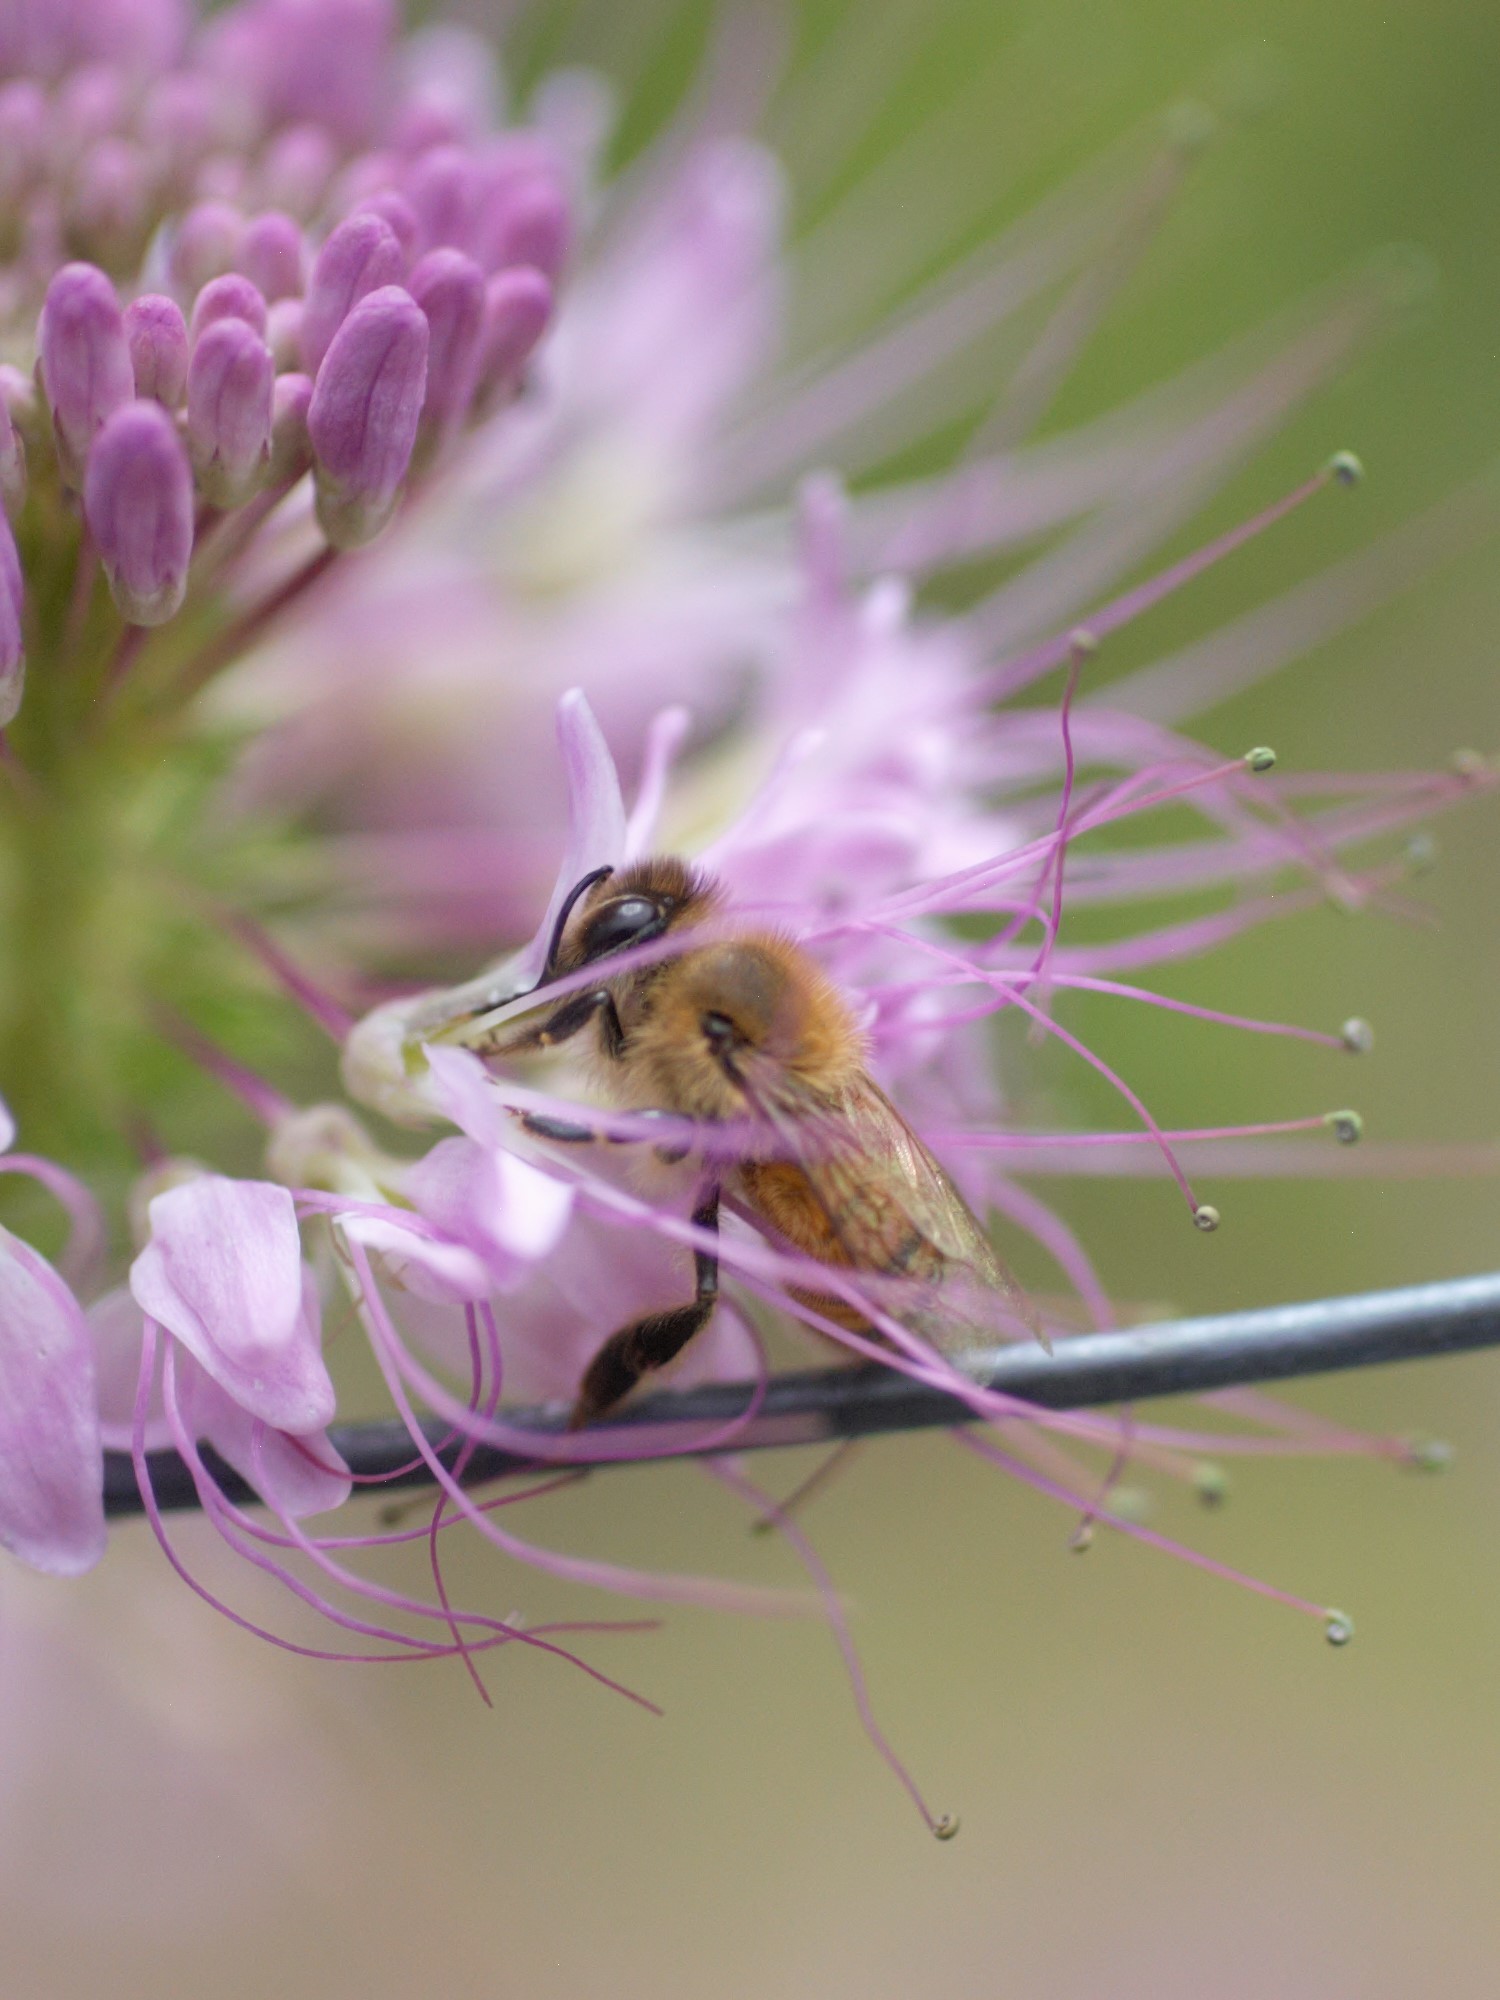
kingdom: Animalia
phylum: Arthropoda
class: Insecta
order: Hymenoptera
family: Apidae
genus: Apis
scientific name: Apis mellifera
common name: Honey bee
